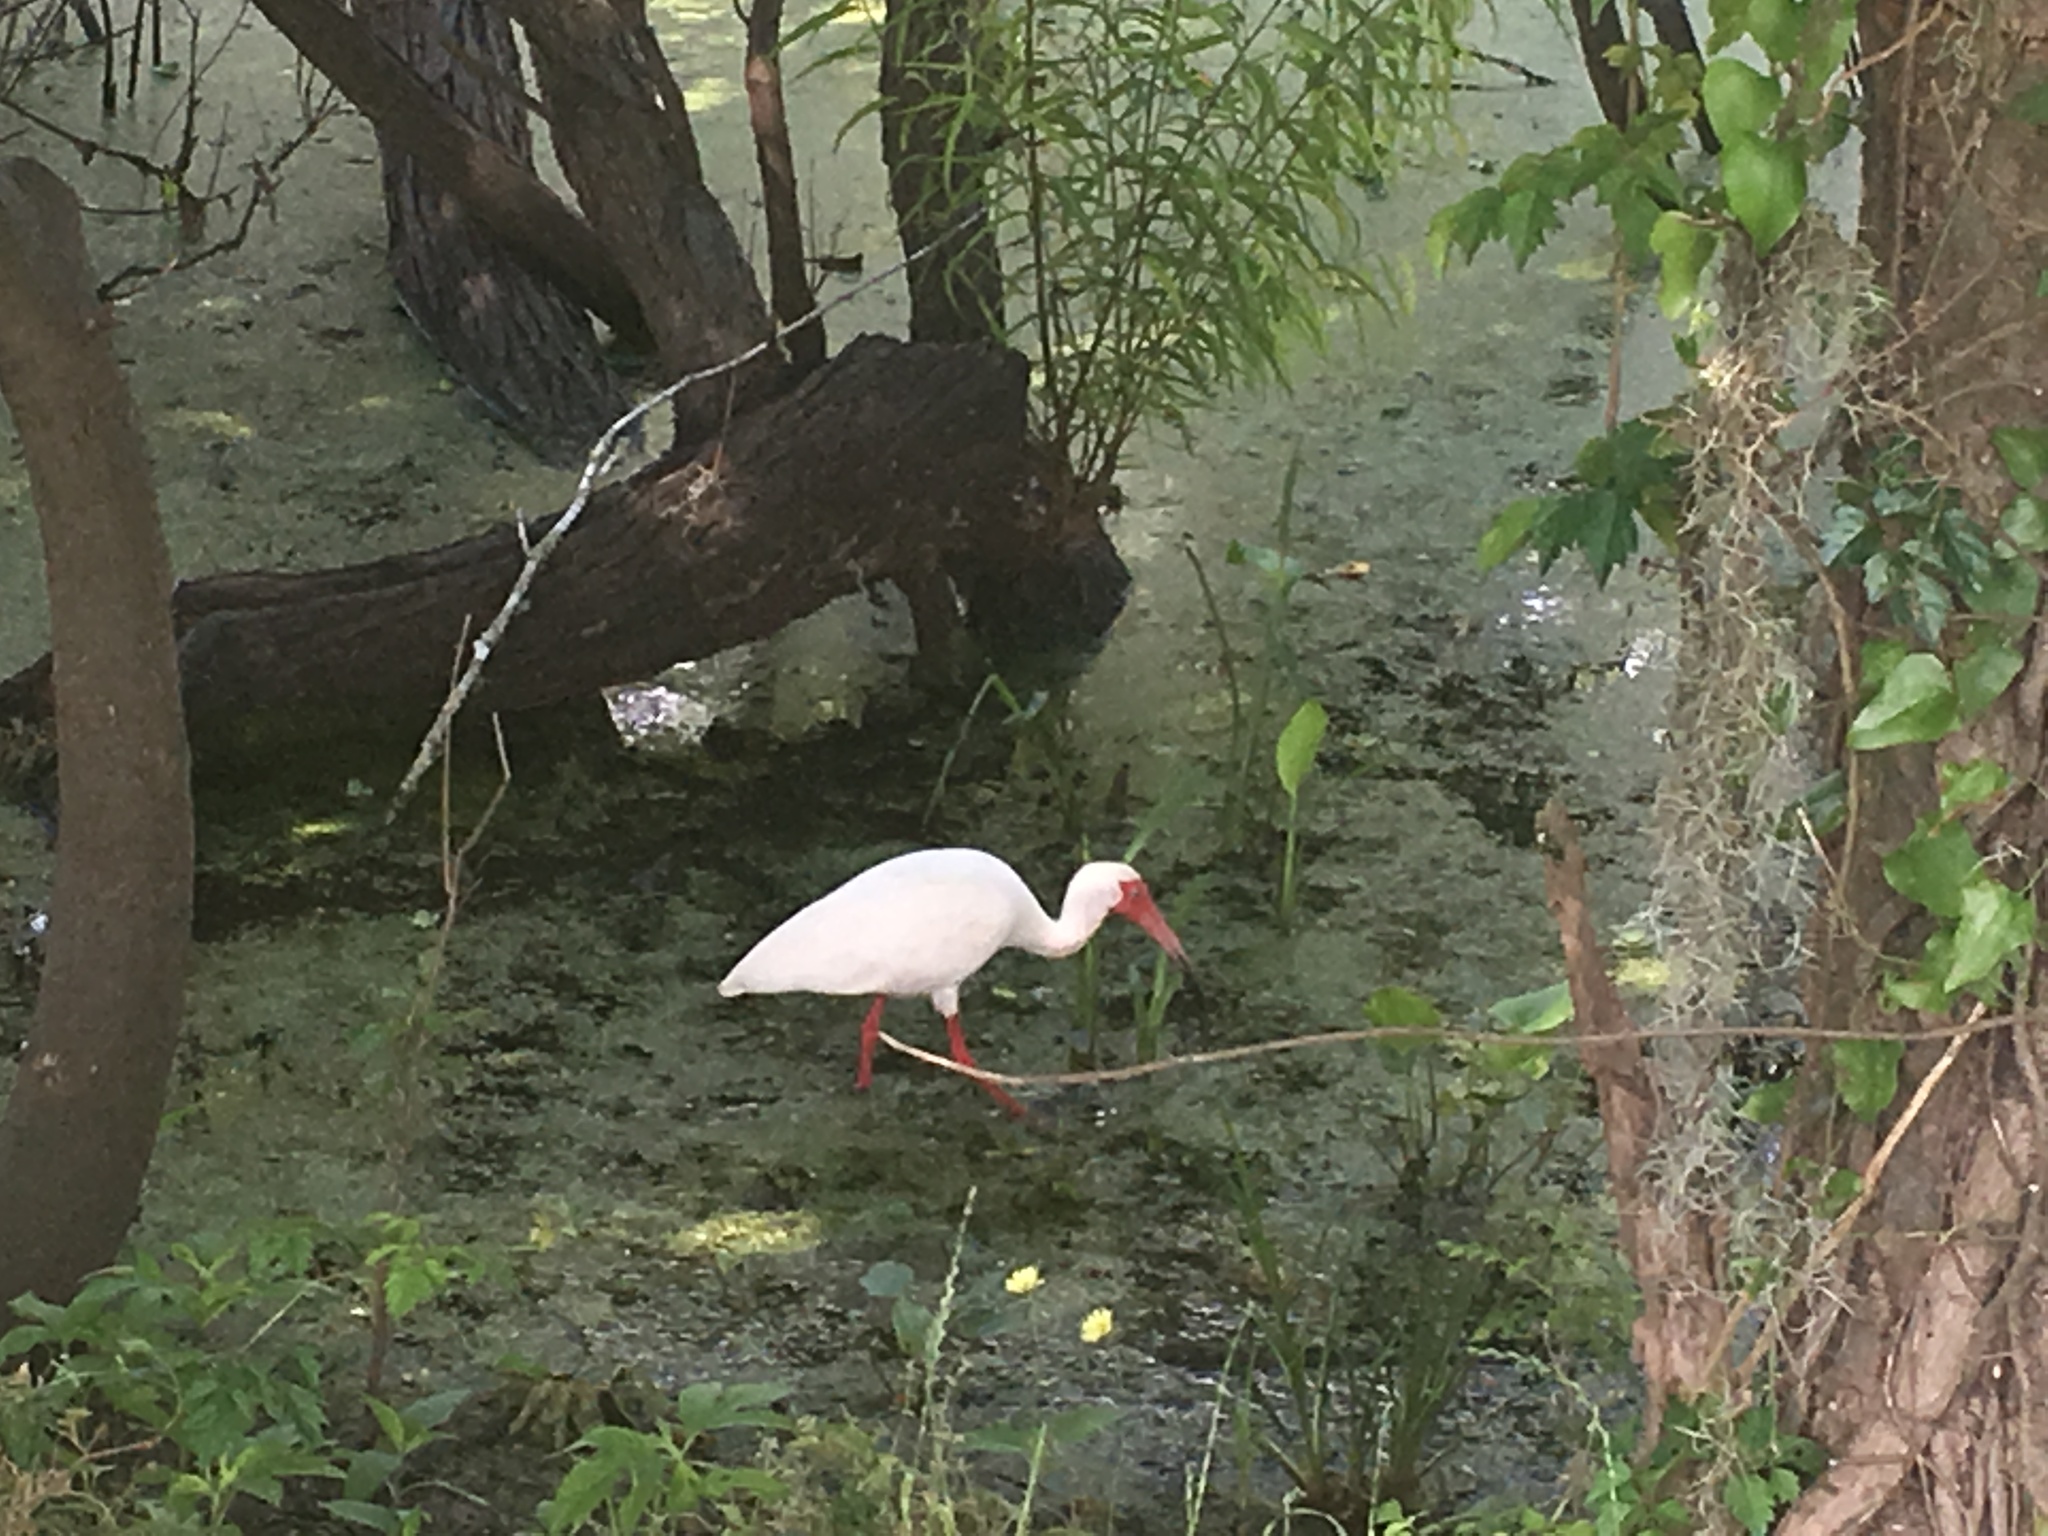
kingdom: Animalia
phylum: Chordata
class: Aves
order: Pelecaniformes
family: Threskiornithidae
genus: Eudocimus
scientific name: Eudocimus albus
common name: White ibis
